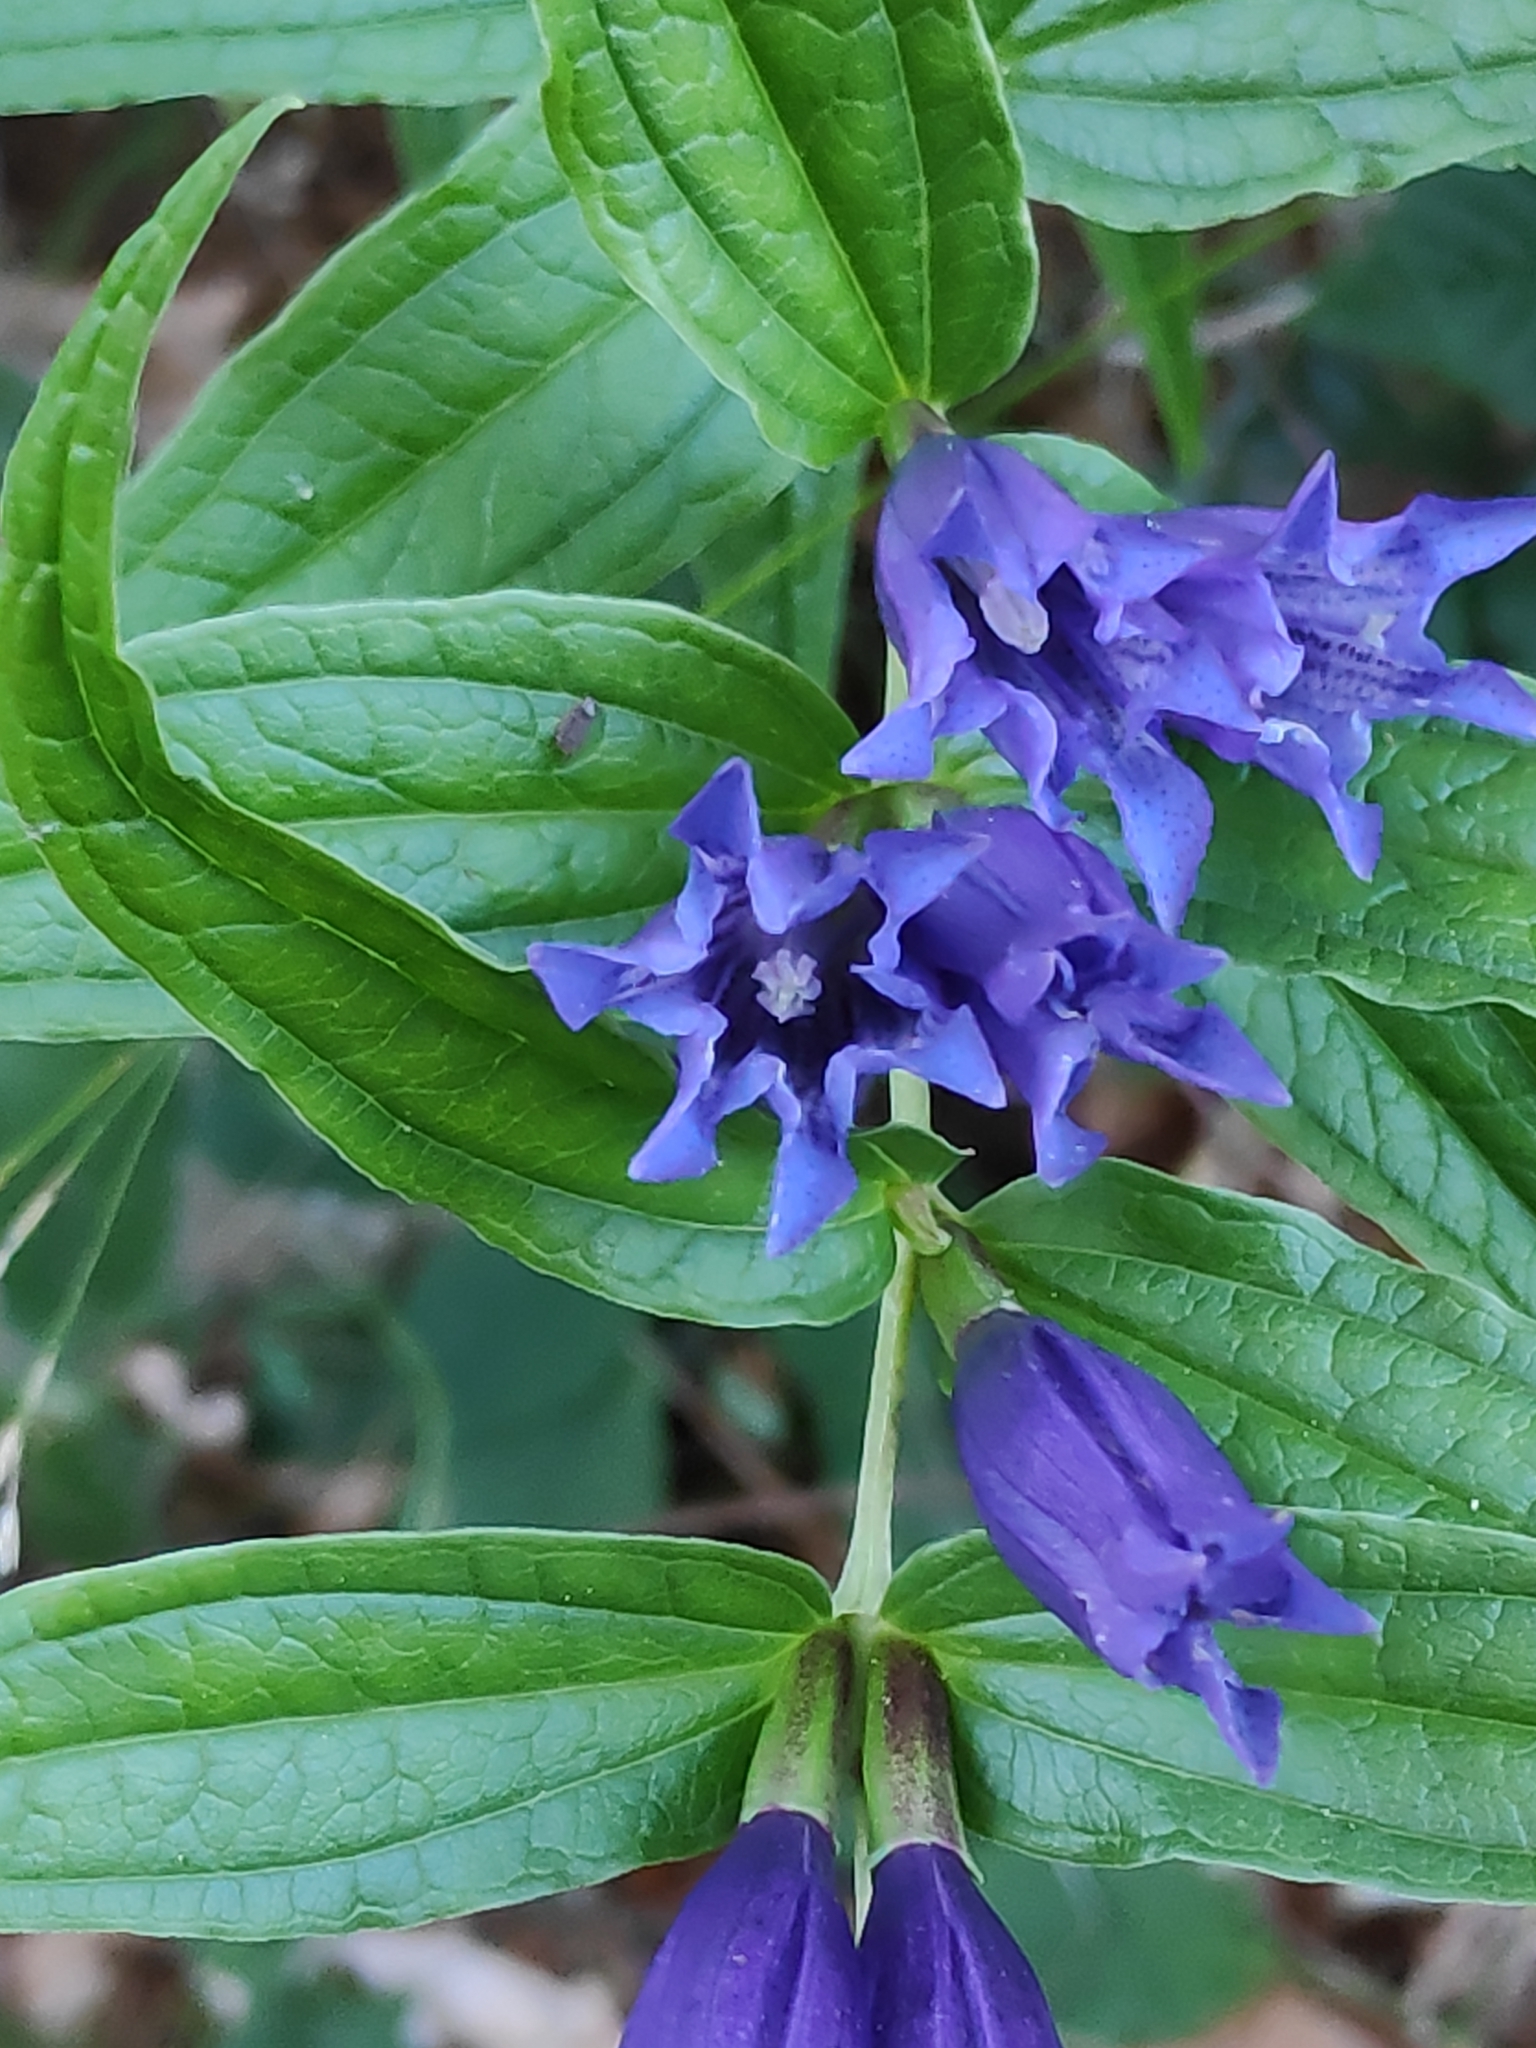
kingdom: Plantae
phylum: Tracheophyta
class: Magnoliopsida
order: Gentianales
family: Gentianaceae
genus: Gentiana
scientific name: Gentiana asclepiadea
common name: Willow gentian
